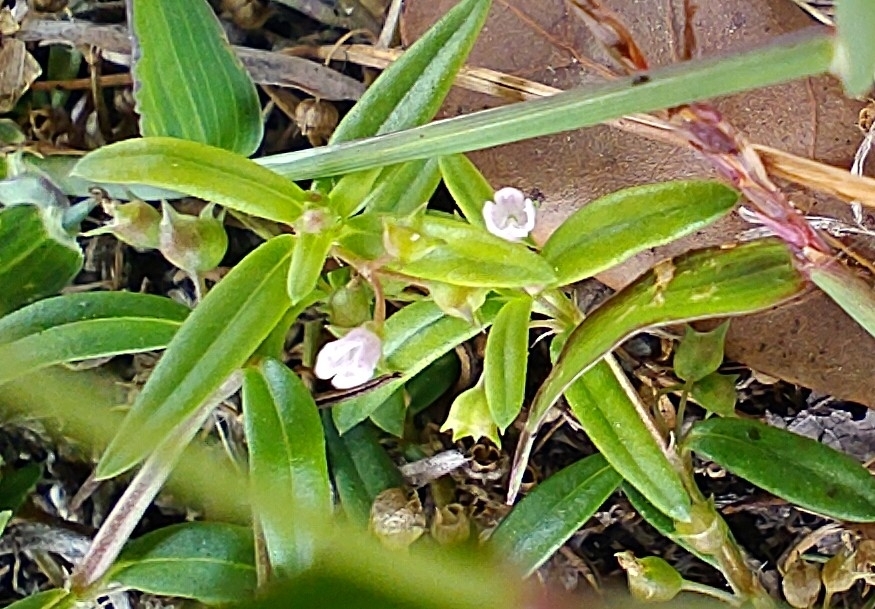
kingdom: Plantae
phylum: Tracheophyta
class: Magnoliopsida
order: Gentianales
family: Rubiaceae
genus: Oldenlandia
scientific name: Oldenlandia corymbosa
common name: Flat-top mille graines
